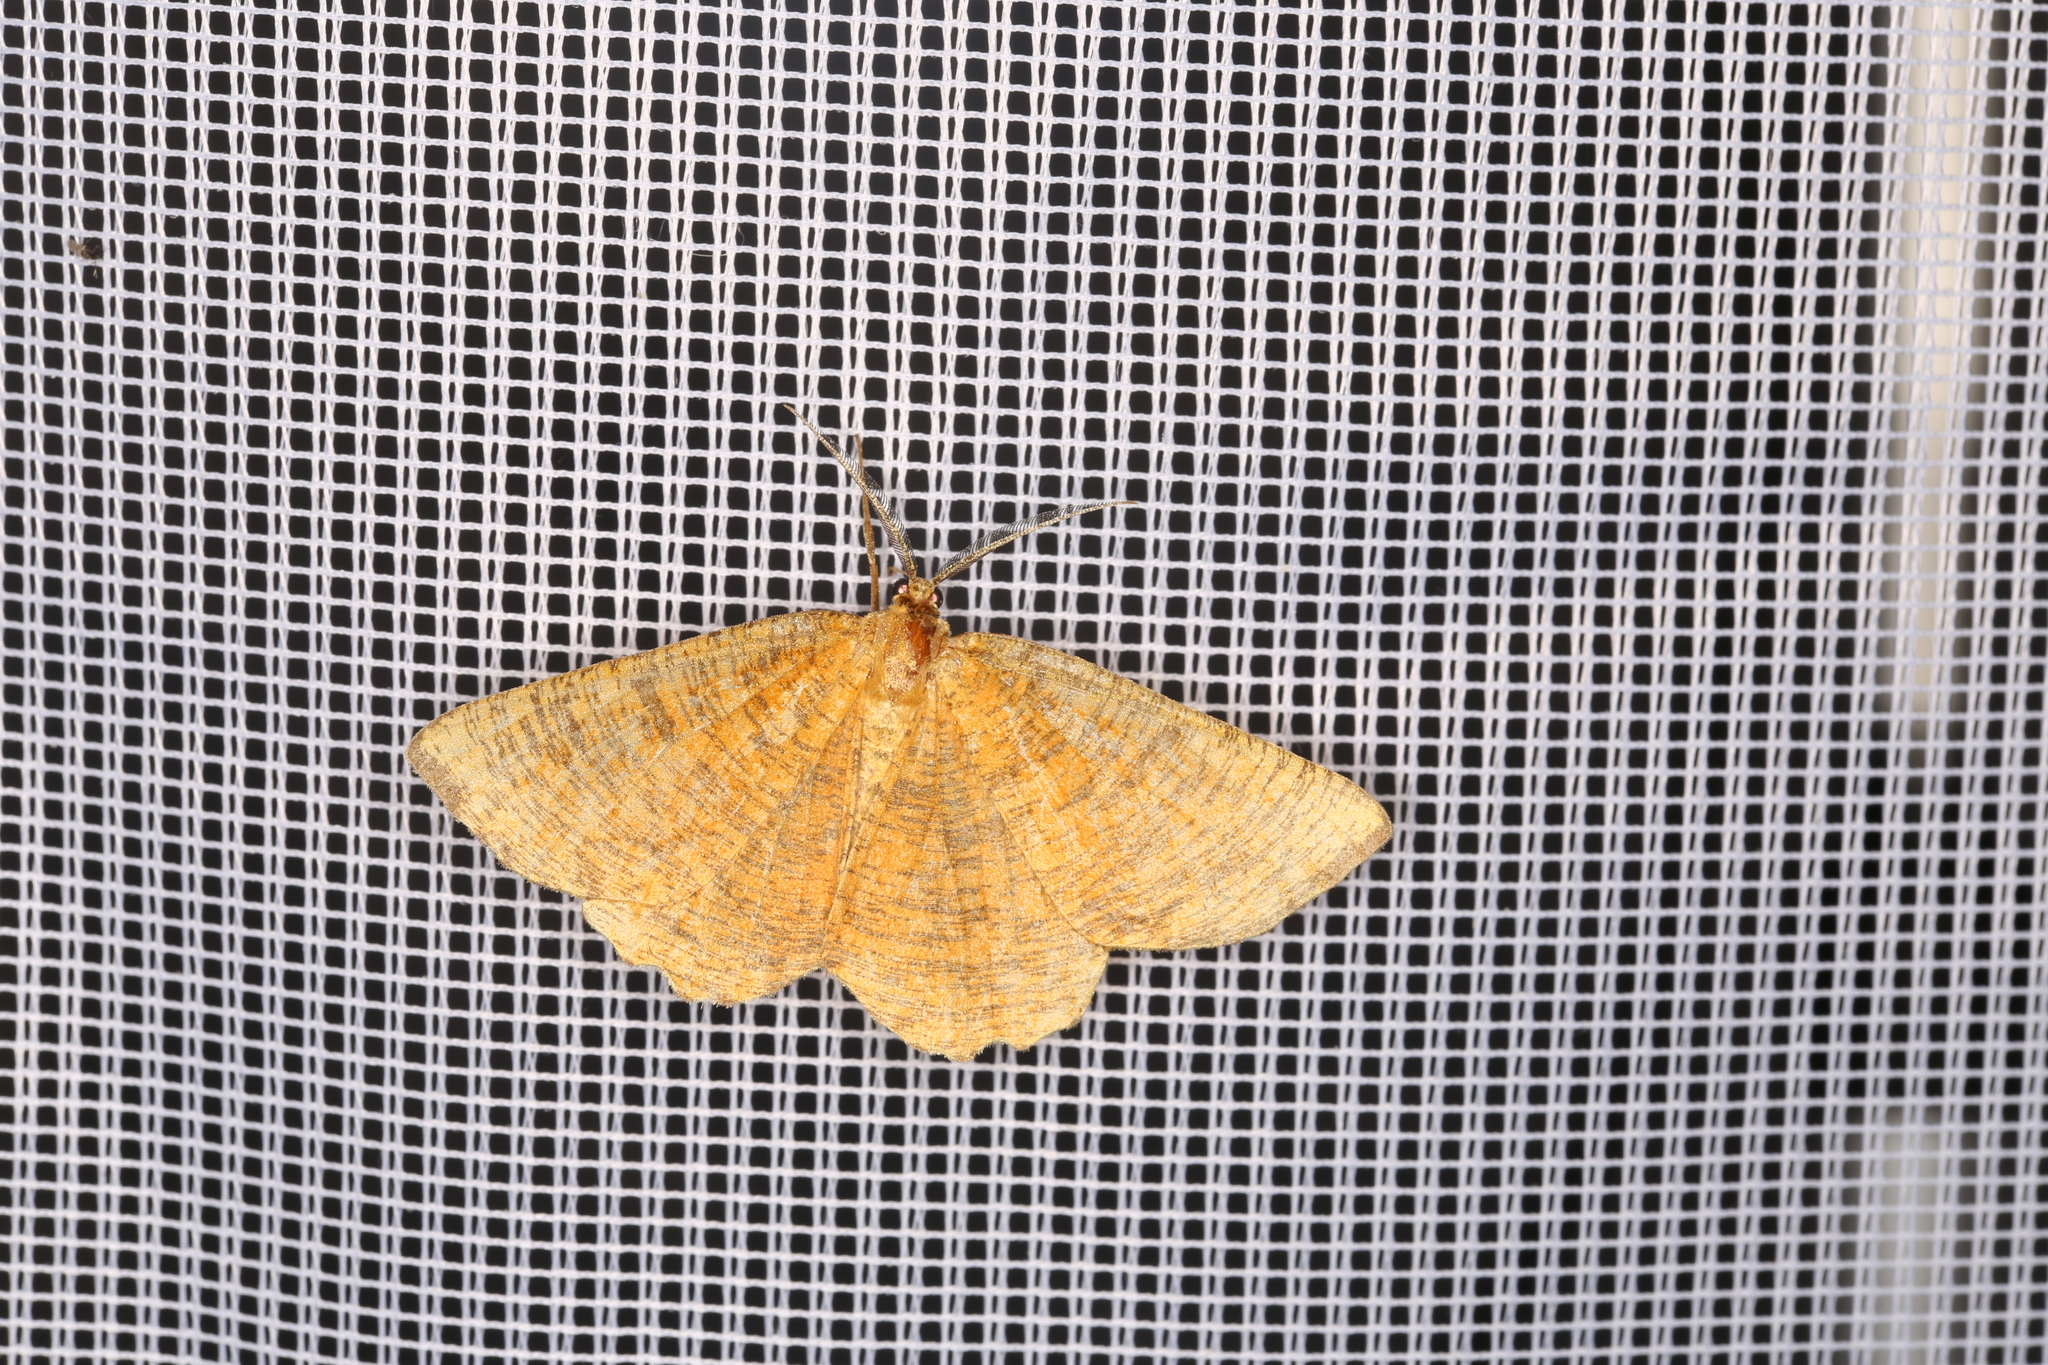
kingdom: Animalia
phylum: Arthropoda
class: Insecta
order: Lepidoptera
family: Geometridae
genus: Angerona
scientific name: Angerona prunaria
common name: Orange moth
